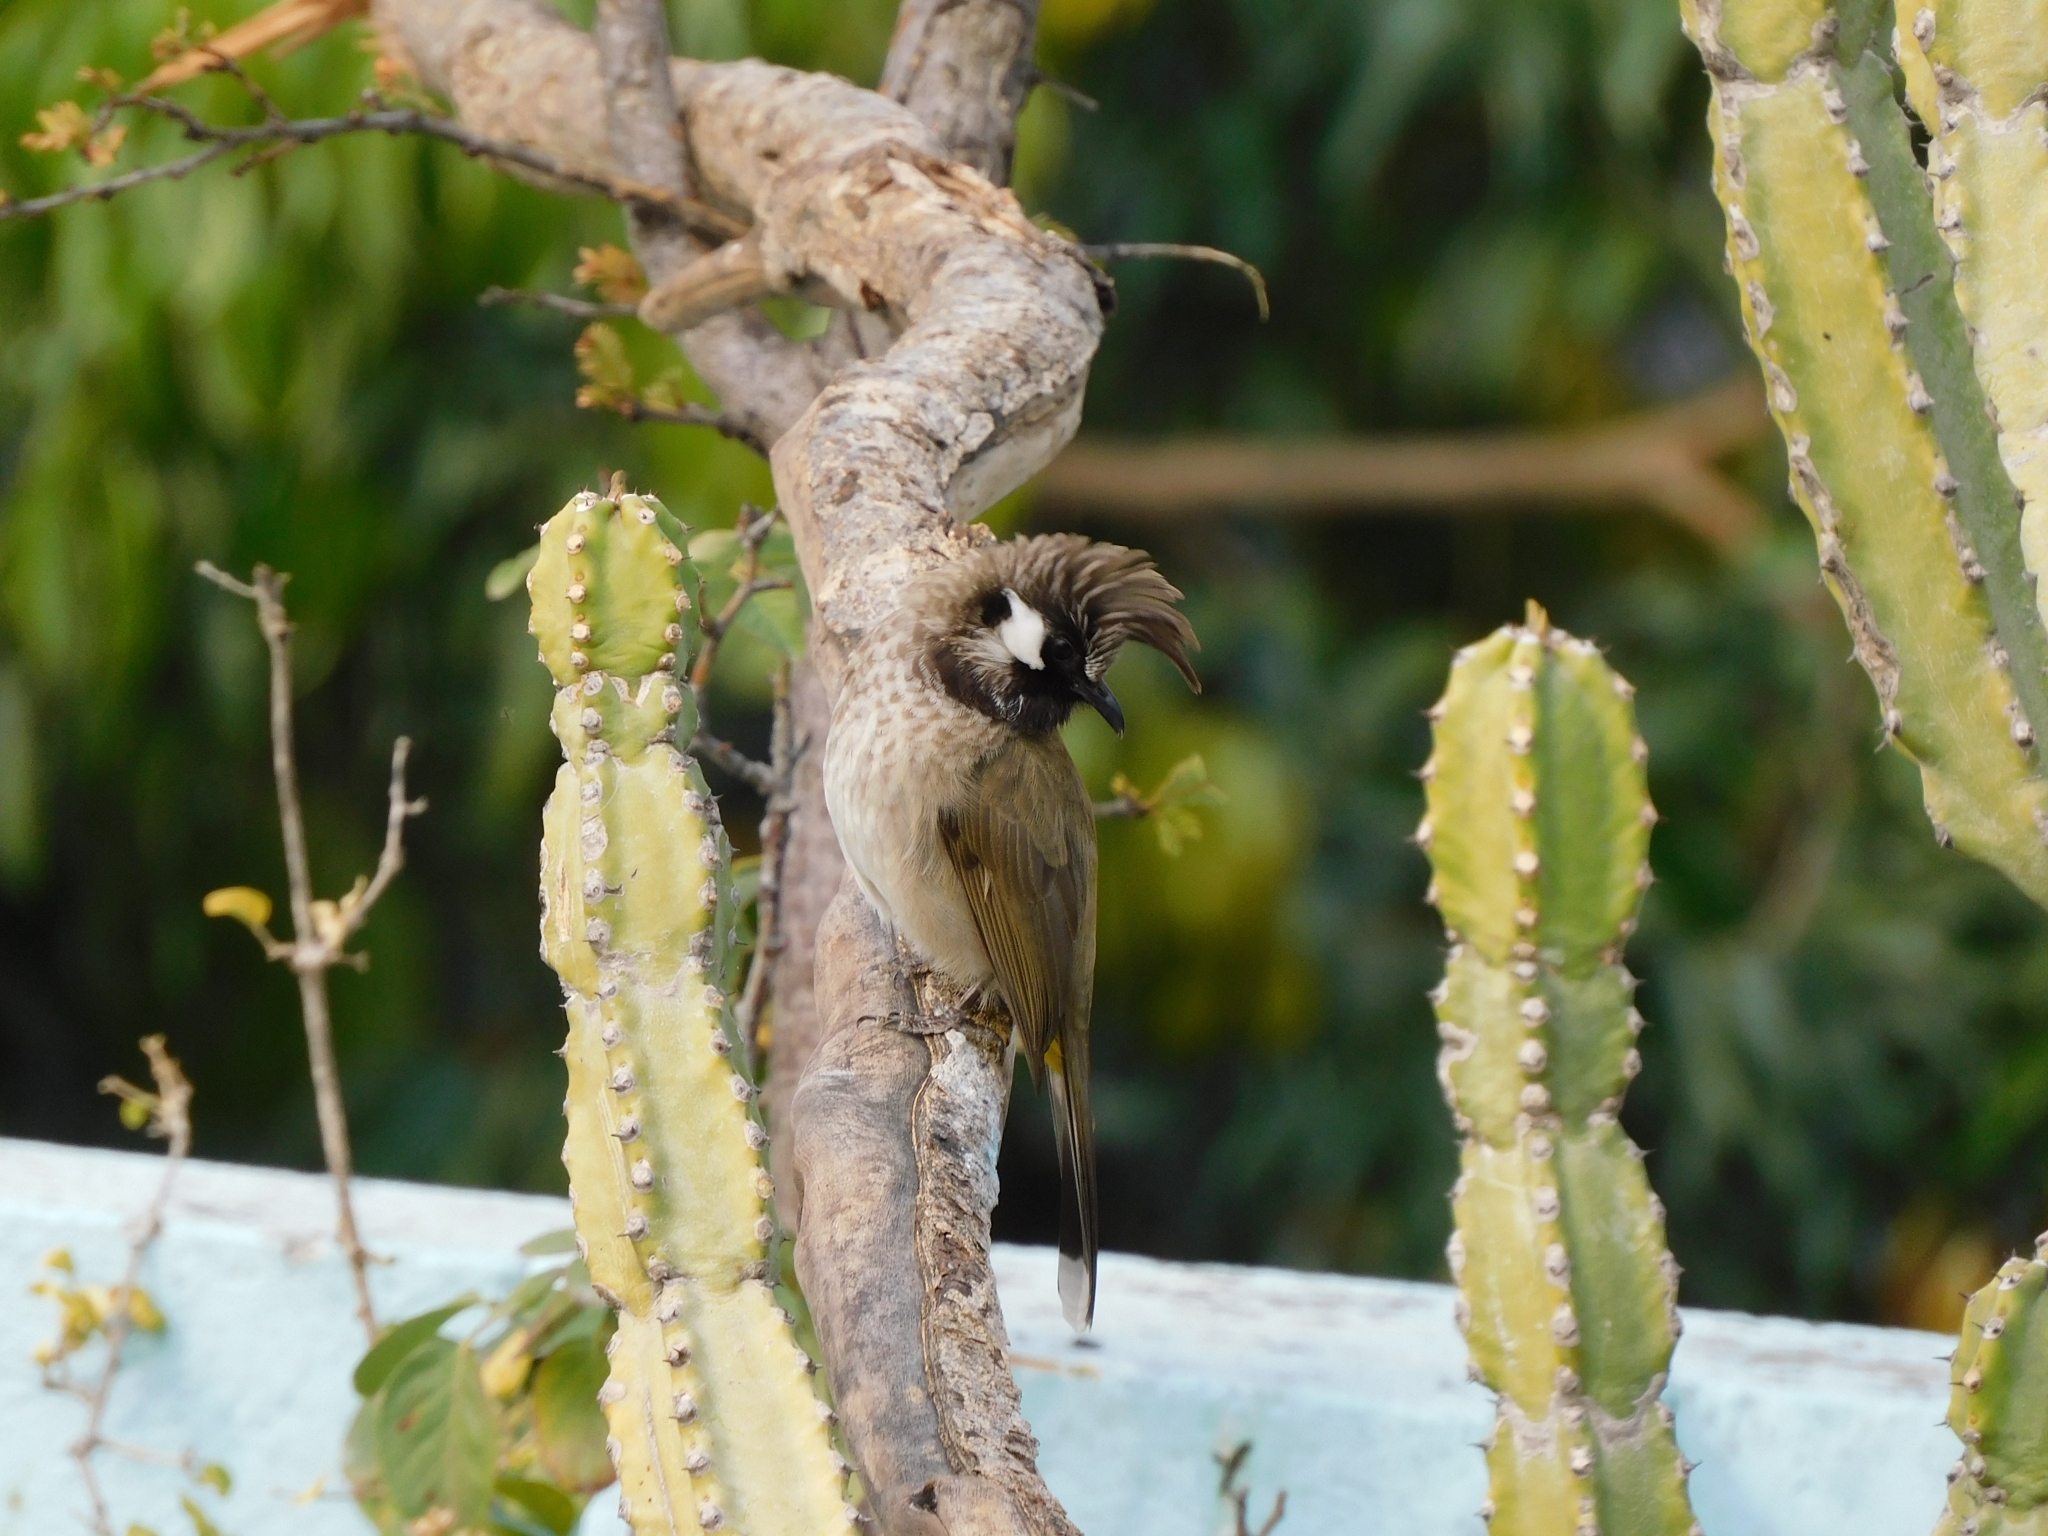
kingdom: Animalia
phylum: Chordata
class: Aves
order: Passeriformes
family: Pycnonotidae
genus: Pycnonotus
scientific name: Pycnonotus leucogenys
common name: Himalayan bulbul
